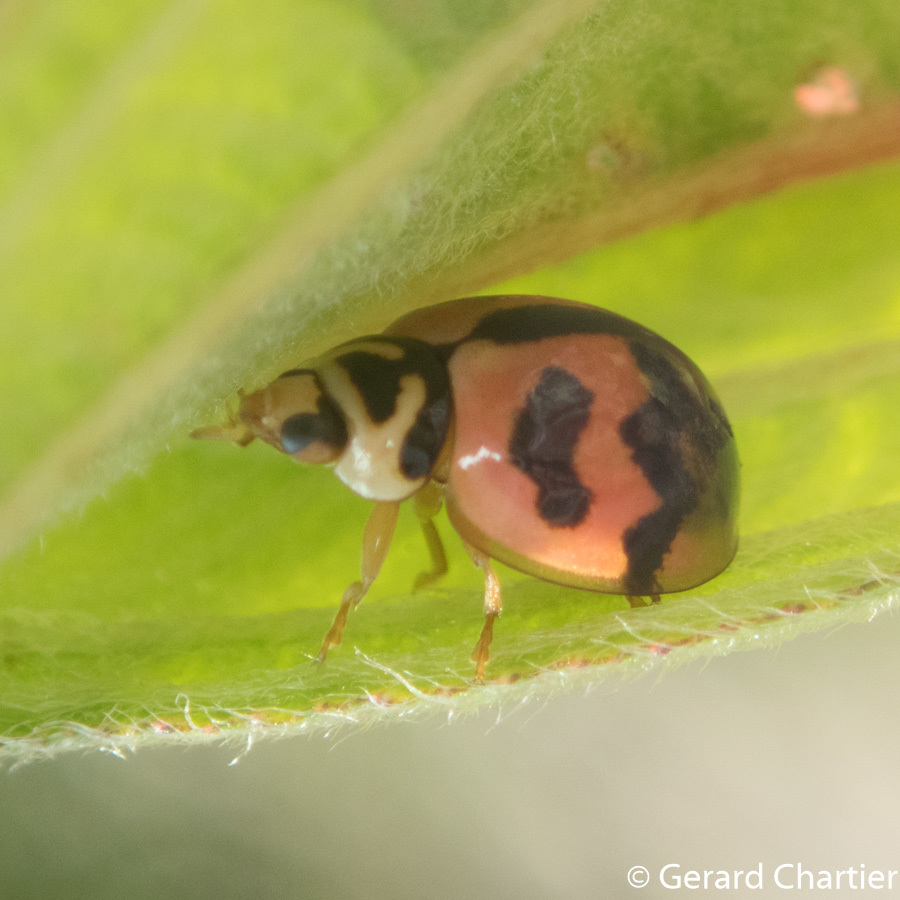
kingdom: Animalia
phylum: Arthropoda
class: Insecta
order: Coleoptera
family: Coccinellidae
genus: Cheilomenes
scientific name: Cheilomenes sexmaculata
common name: Ladybird beetle
